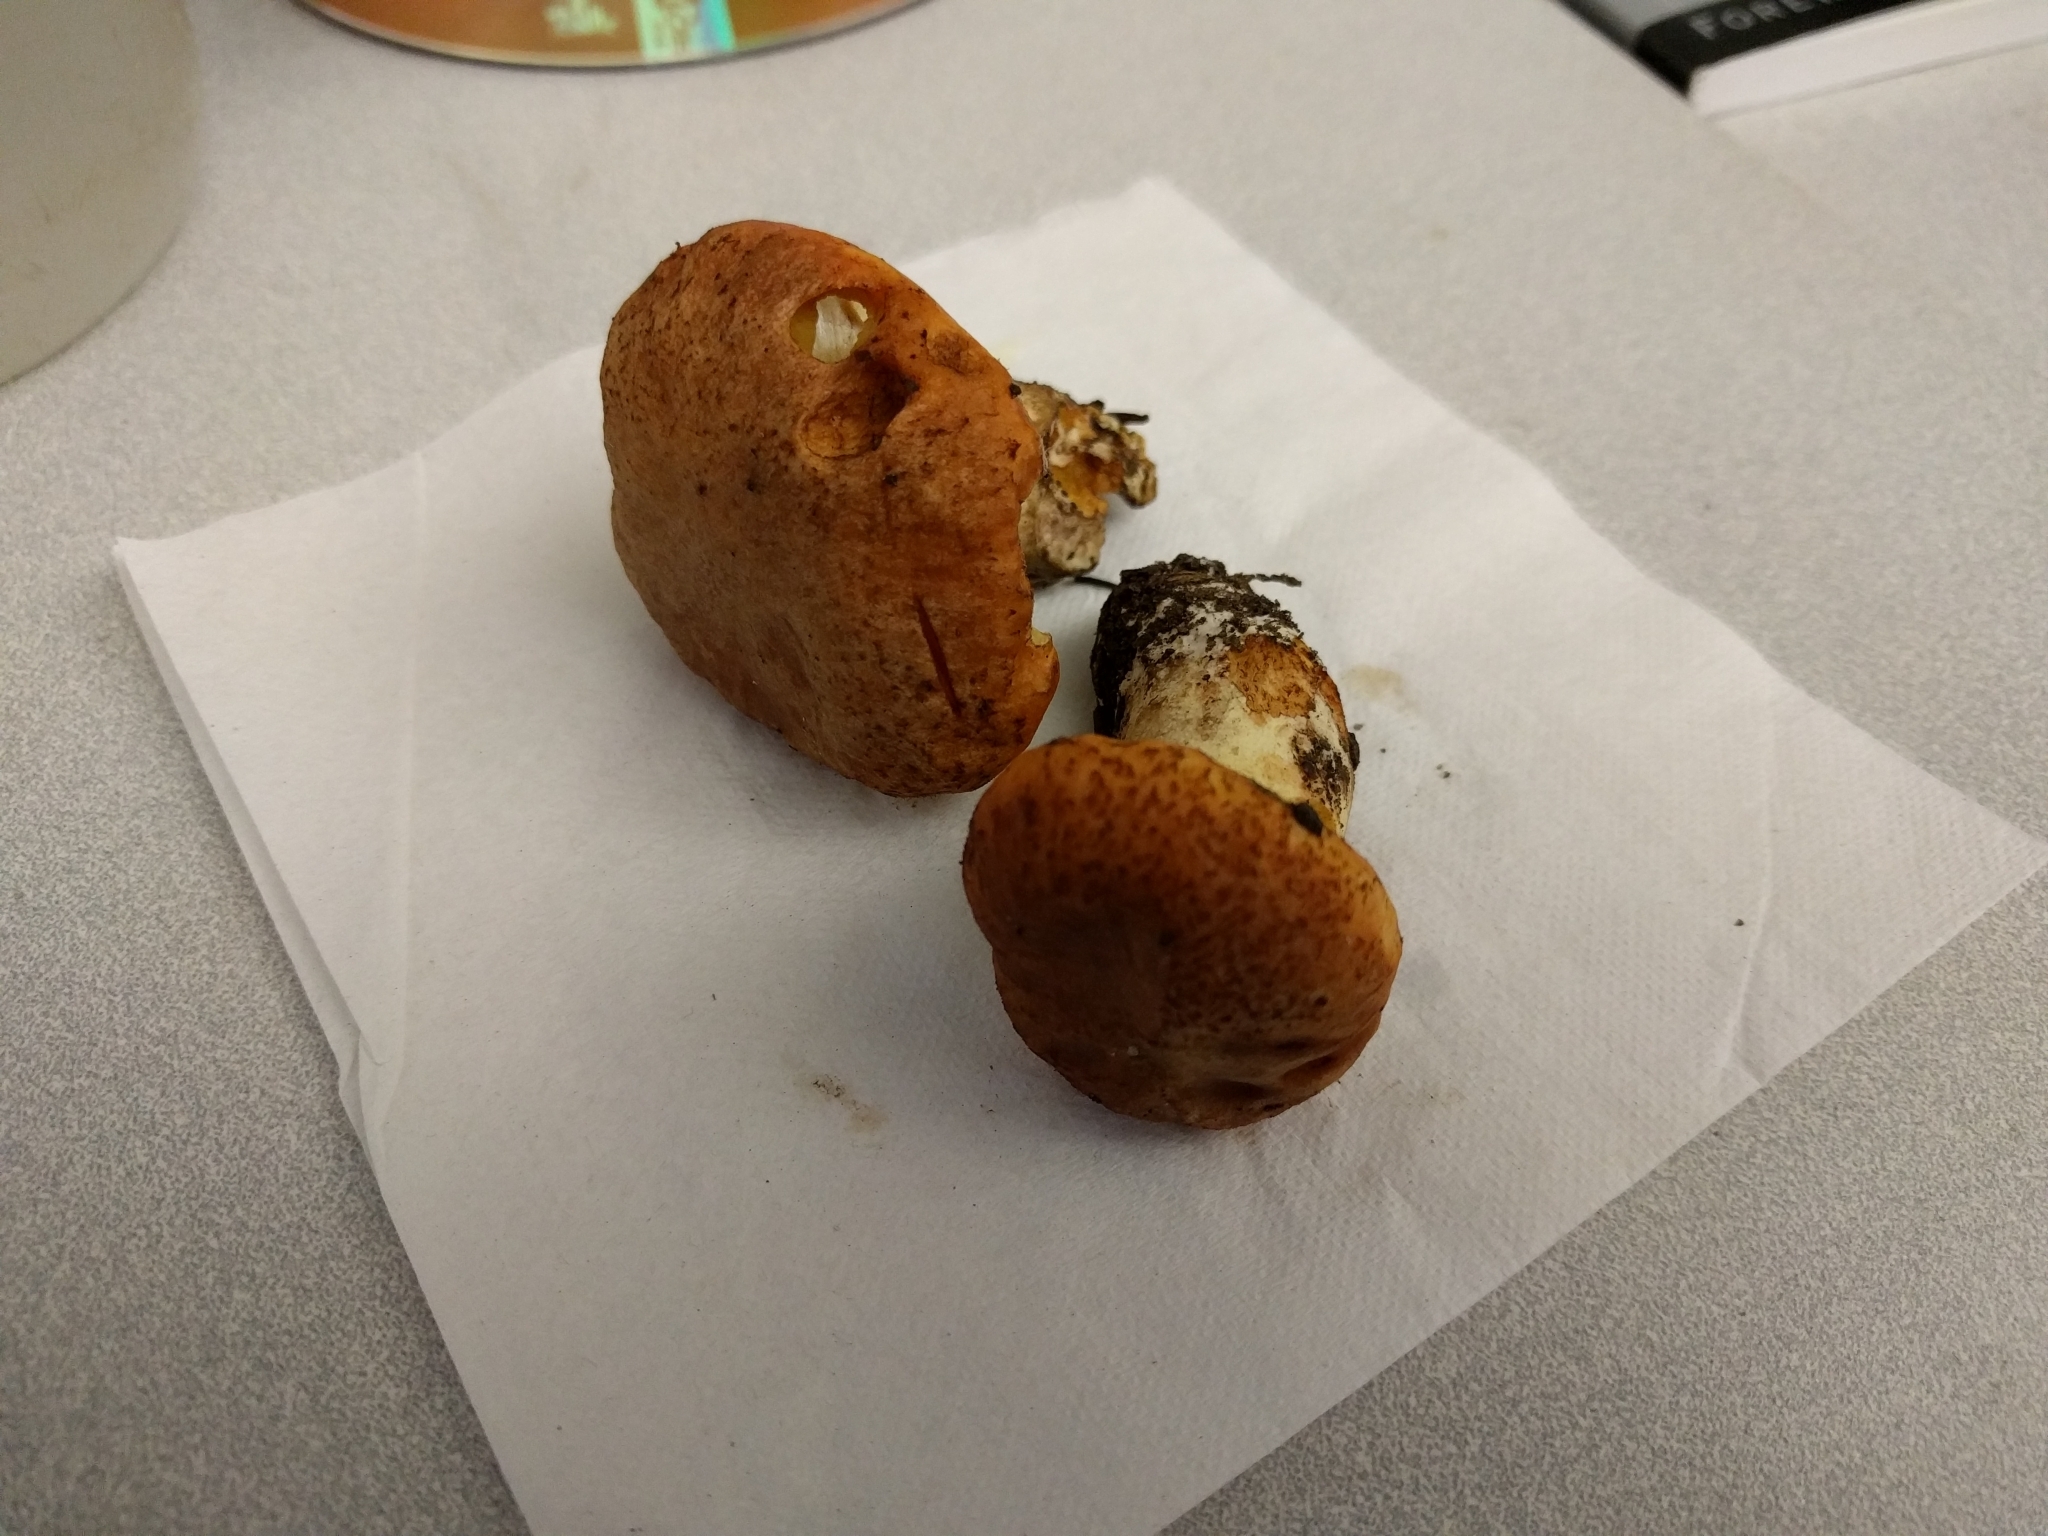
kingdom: Fungi
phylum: Basidiomycota
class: Agaricomycetes
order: Boletales
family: Suillaceae
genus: Suillus
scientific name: Suillus ponderosus
